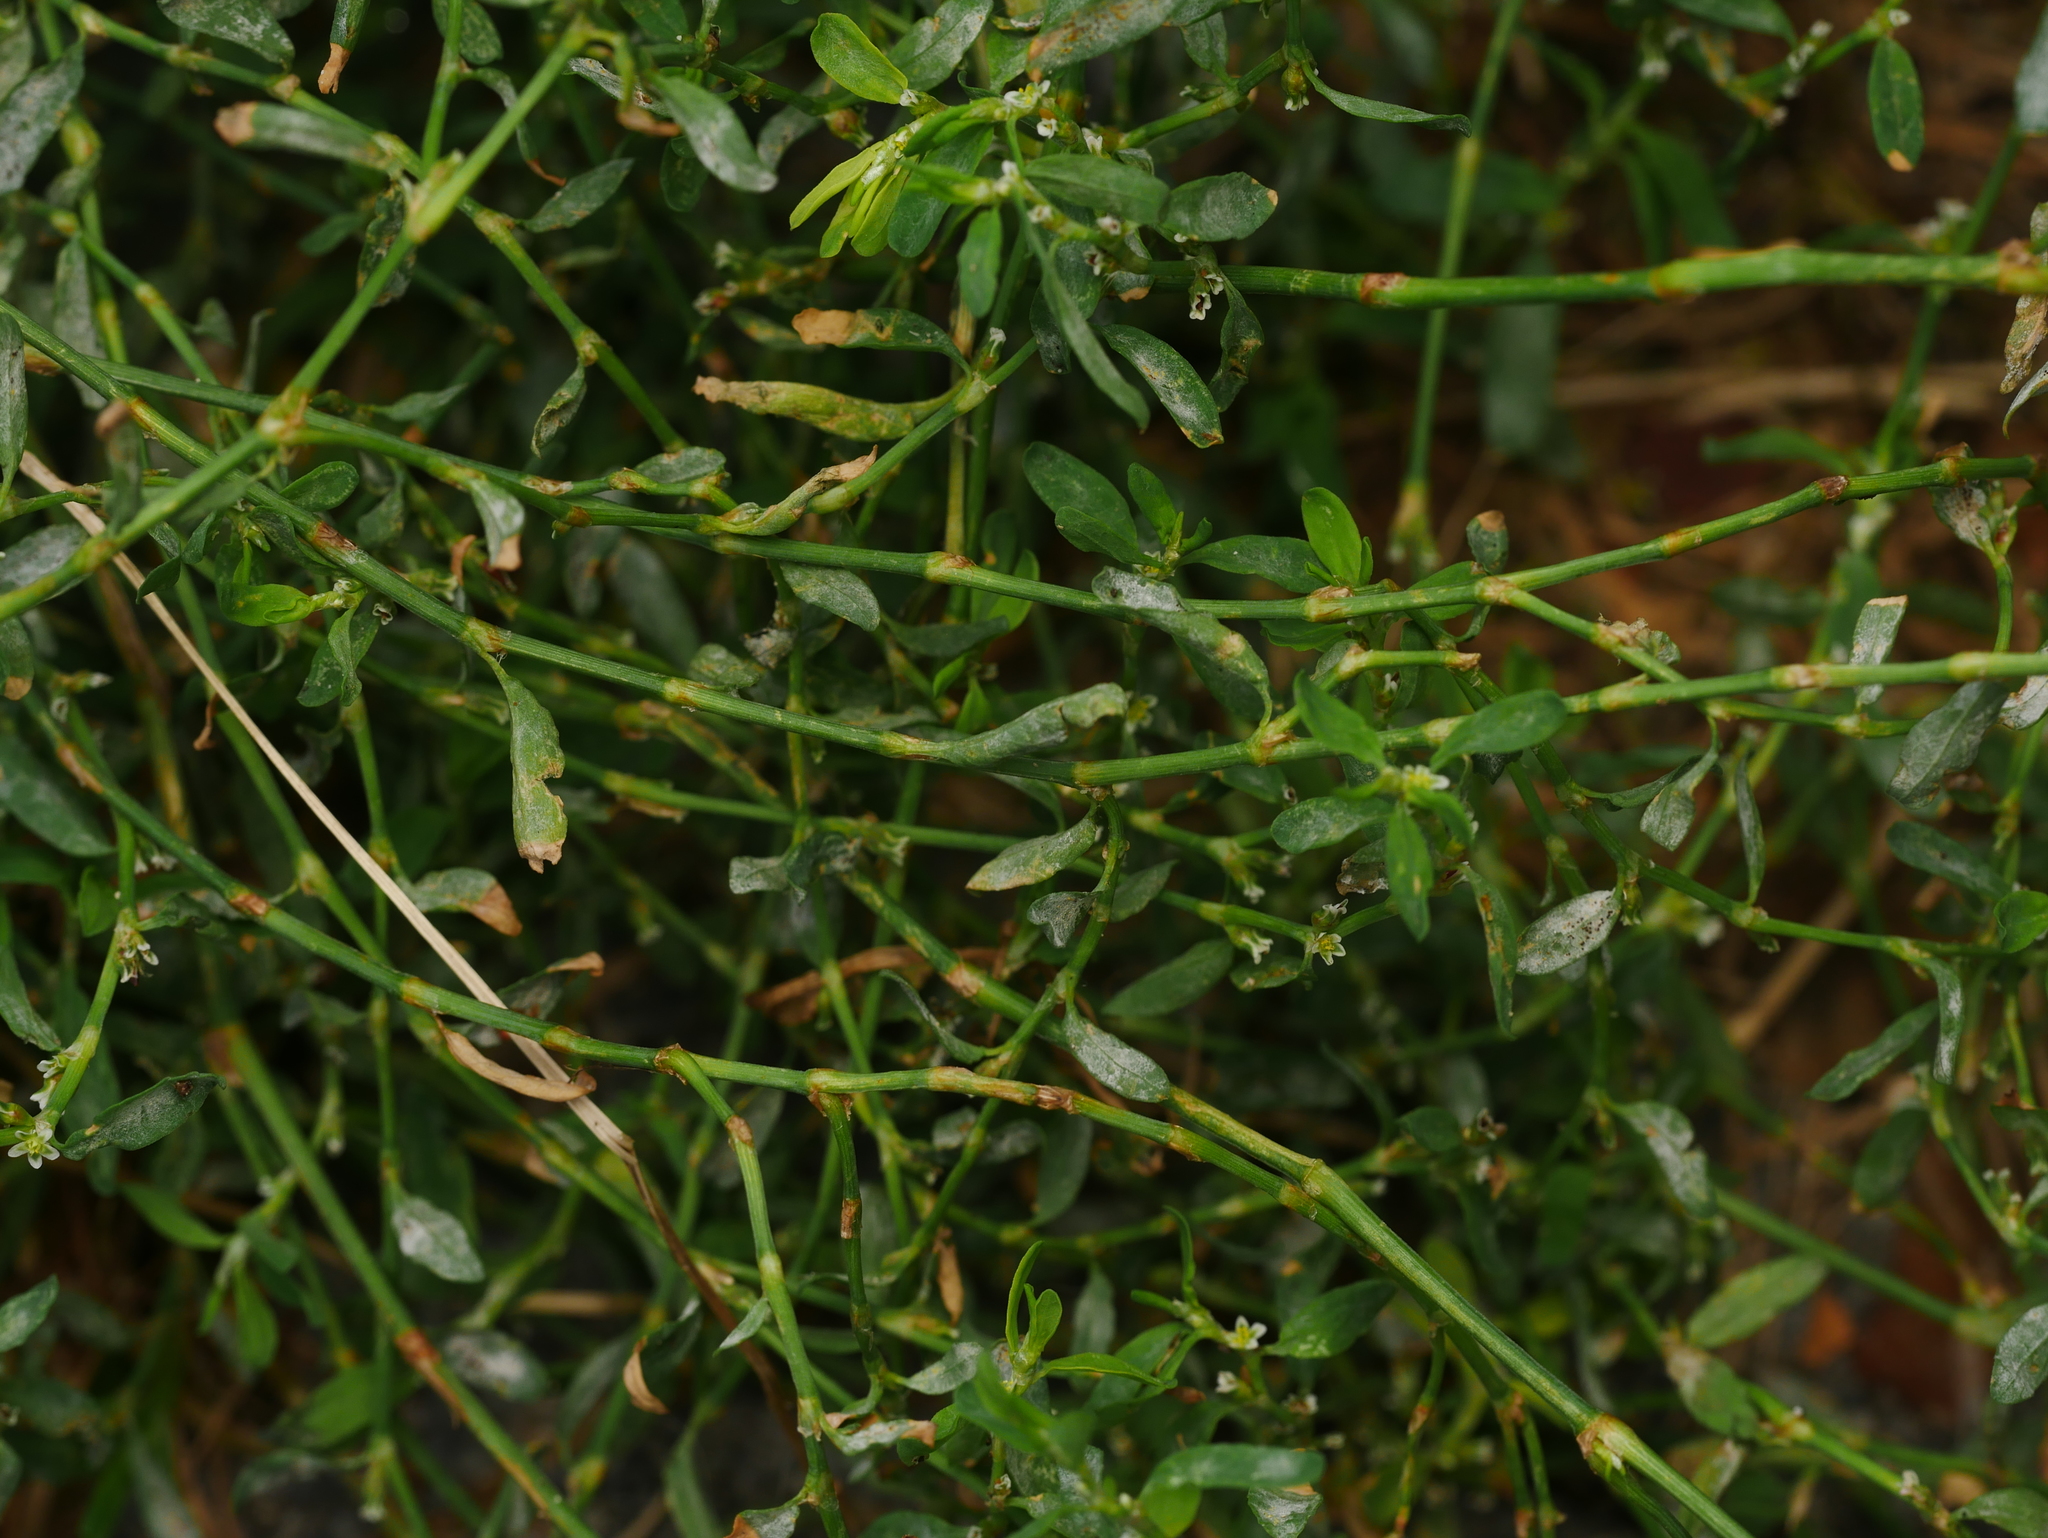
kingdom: Plantae
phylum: Tracheophyta
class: Magnoliopsida
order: Caryophyllales
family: Polygonaceae
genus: Polygonum
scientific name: Polygonum aviculare
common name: Prostrate knotweed
